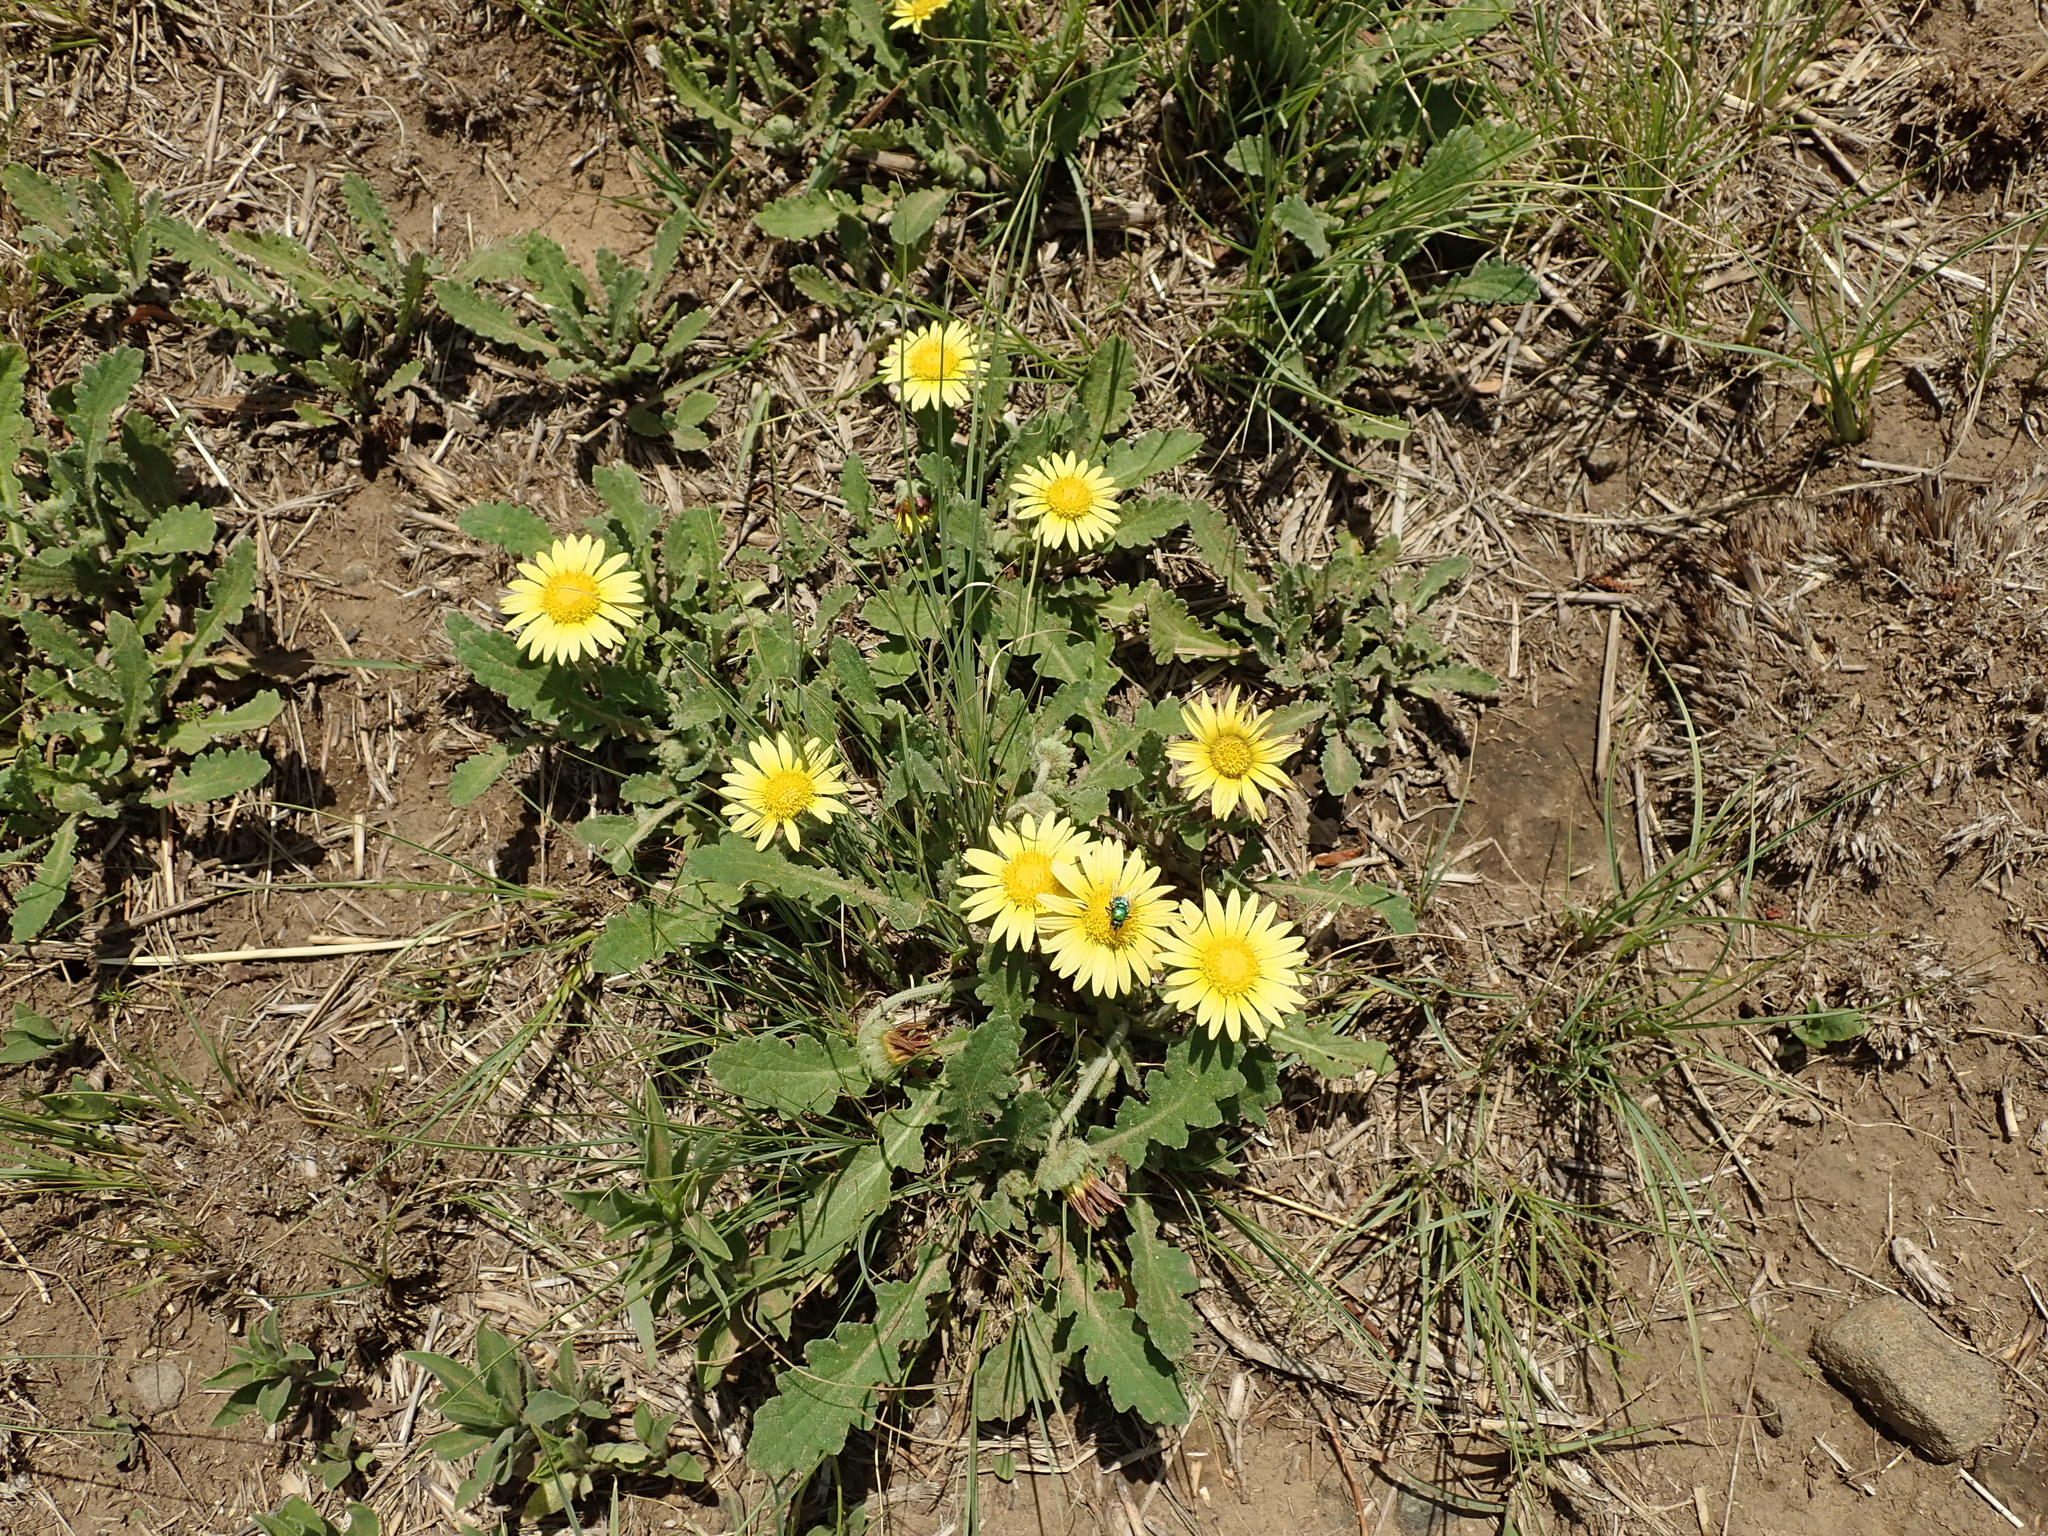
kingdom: Plantae
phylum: Tracheophyta
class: Magnoliopsida
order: Asterales
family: Asteraceae
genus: Arctotis
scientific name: Arctotis arctotoides
